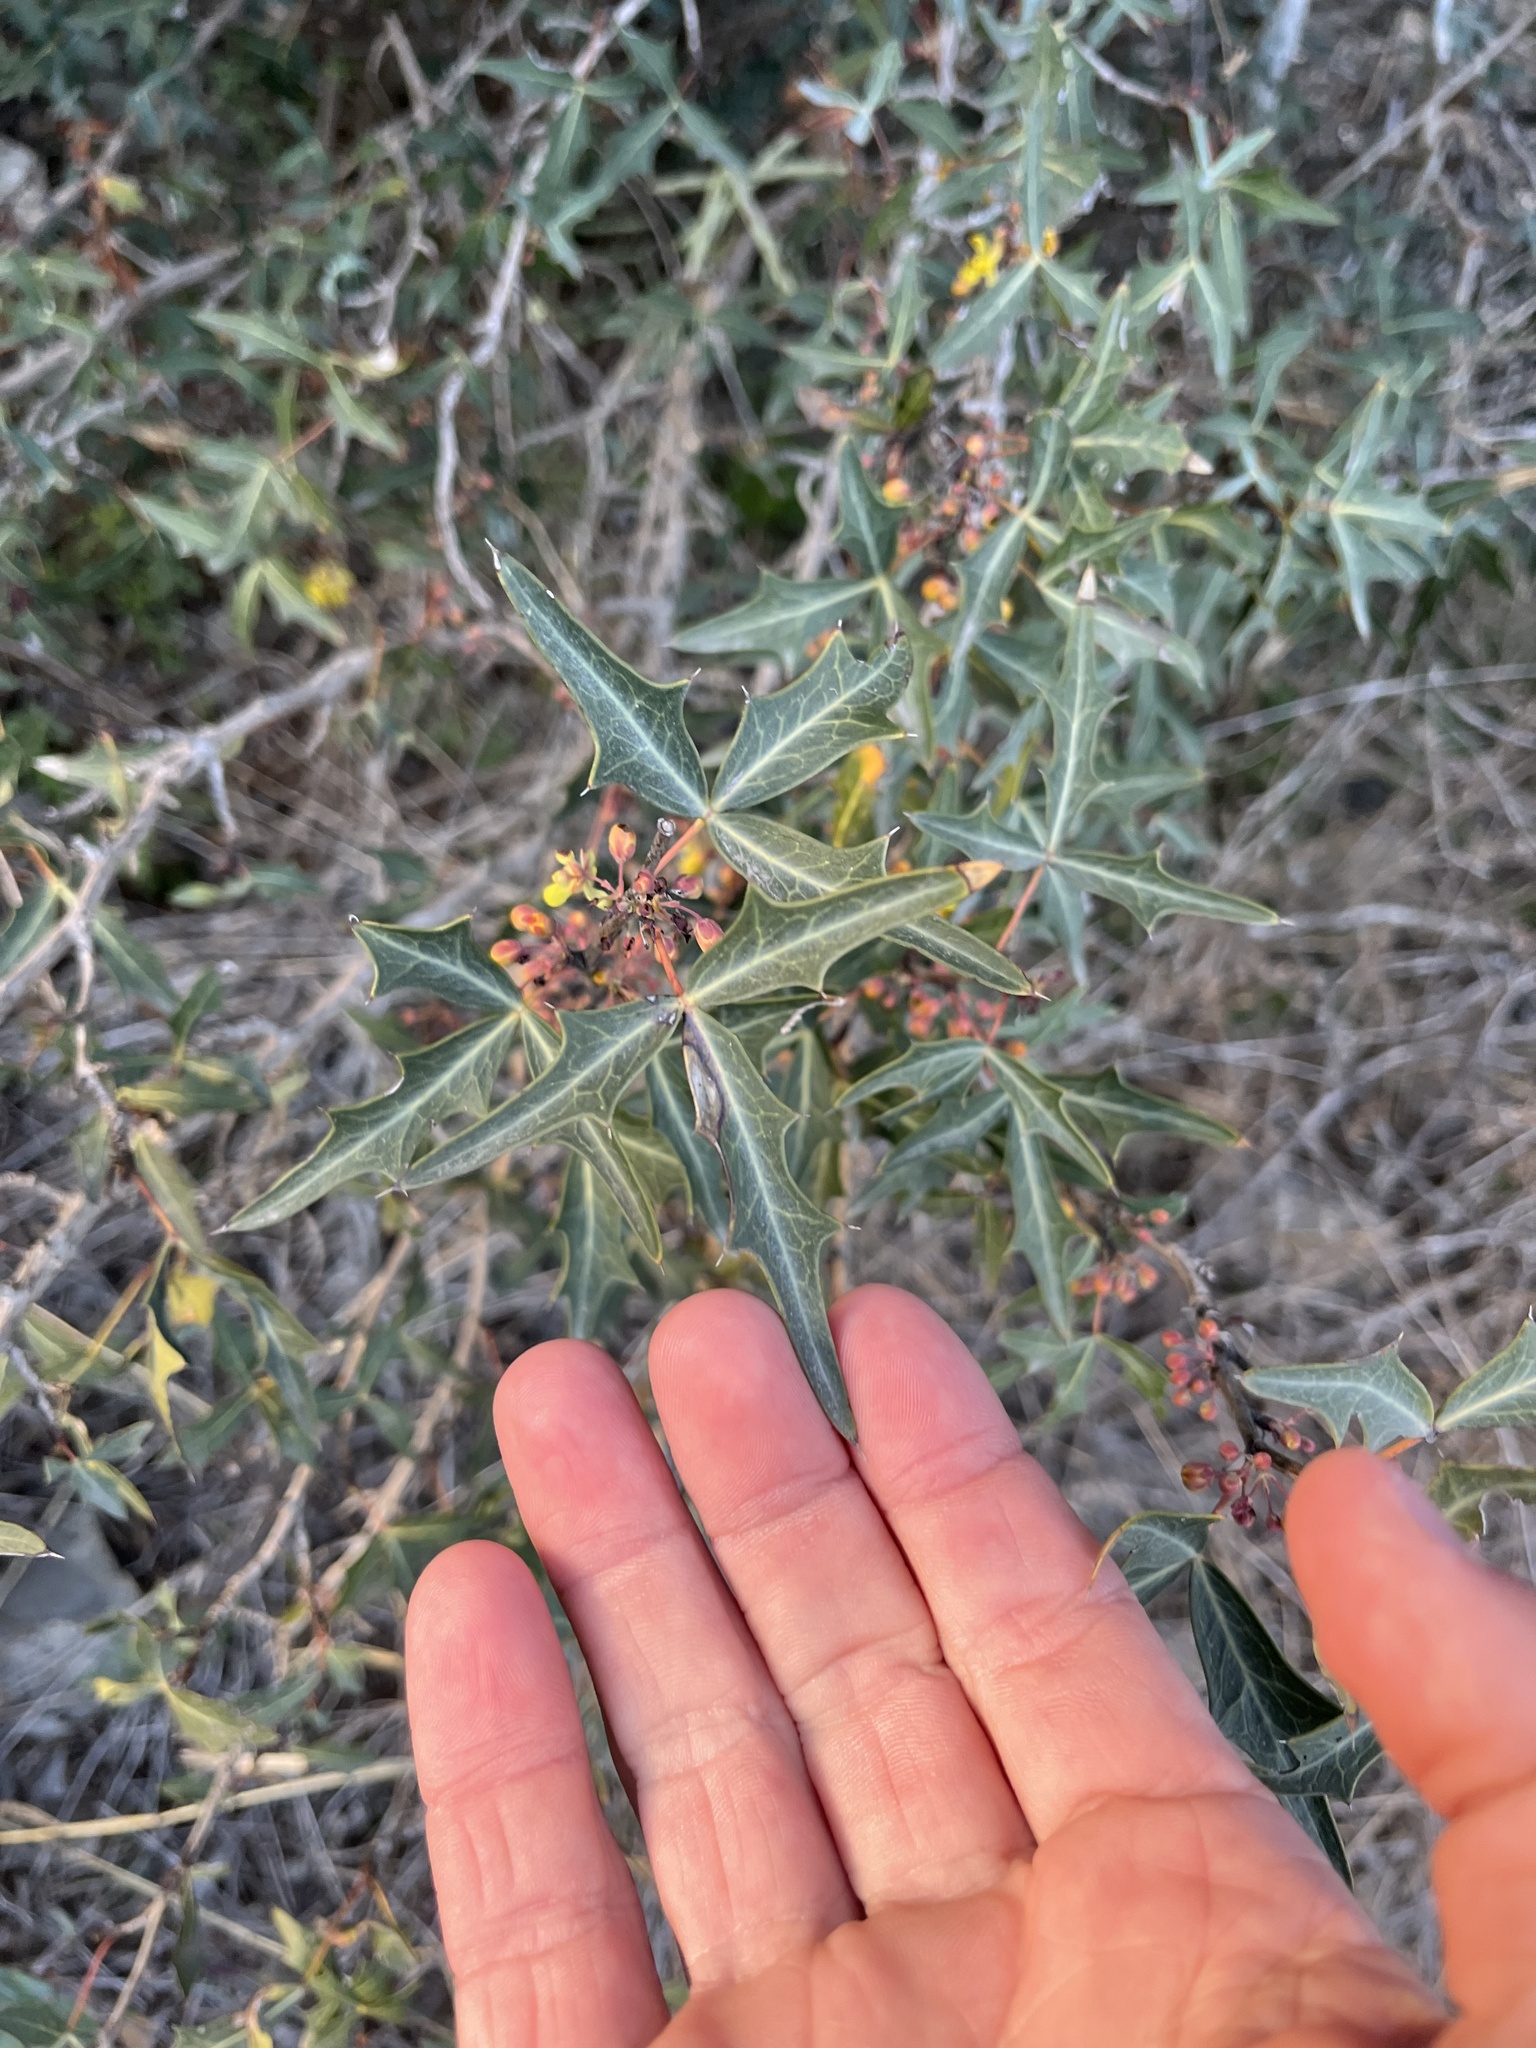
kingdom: Plantae
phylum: Tracheophyta
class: Magnoliopsida
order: Ranunculales
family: Berberidaceae
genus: Alloberberis
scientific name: Alloberberis trifoliolata
